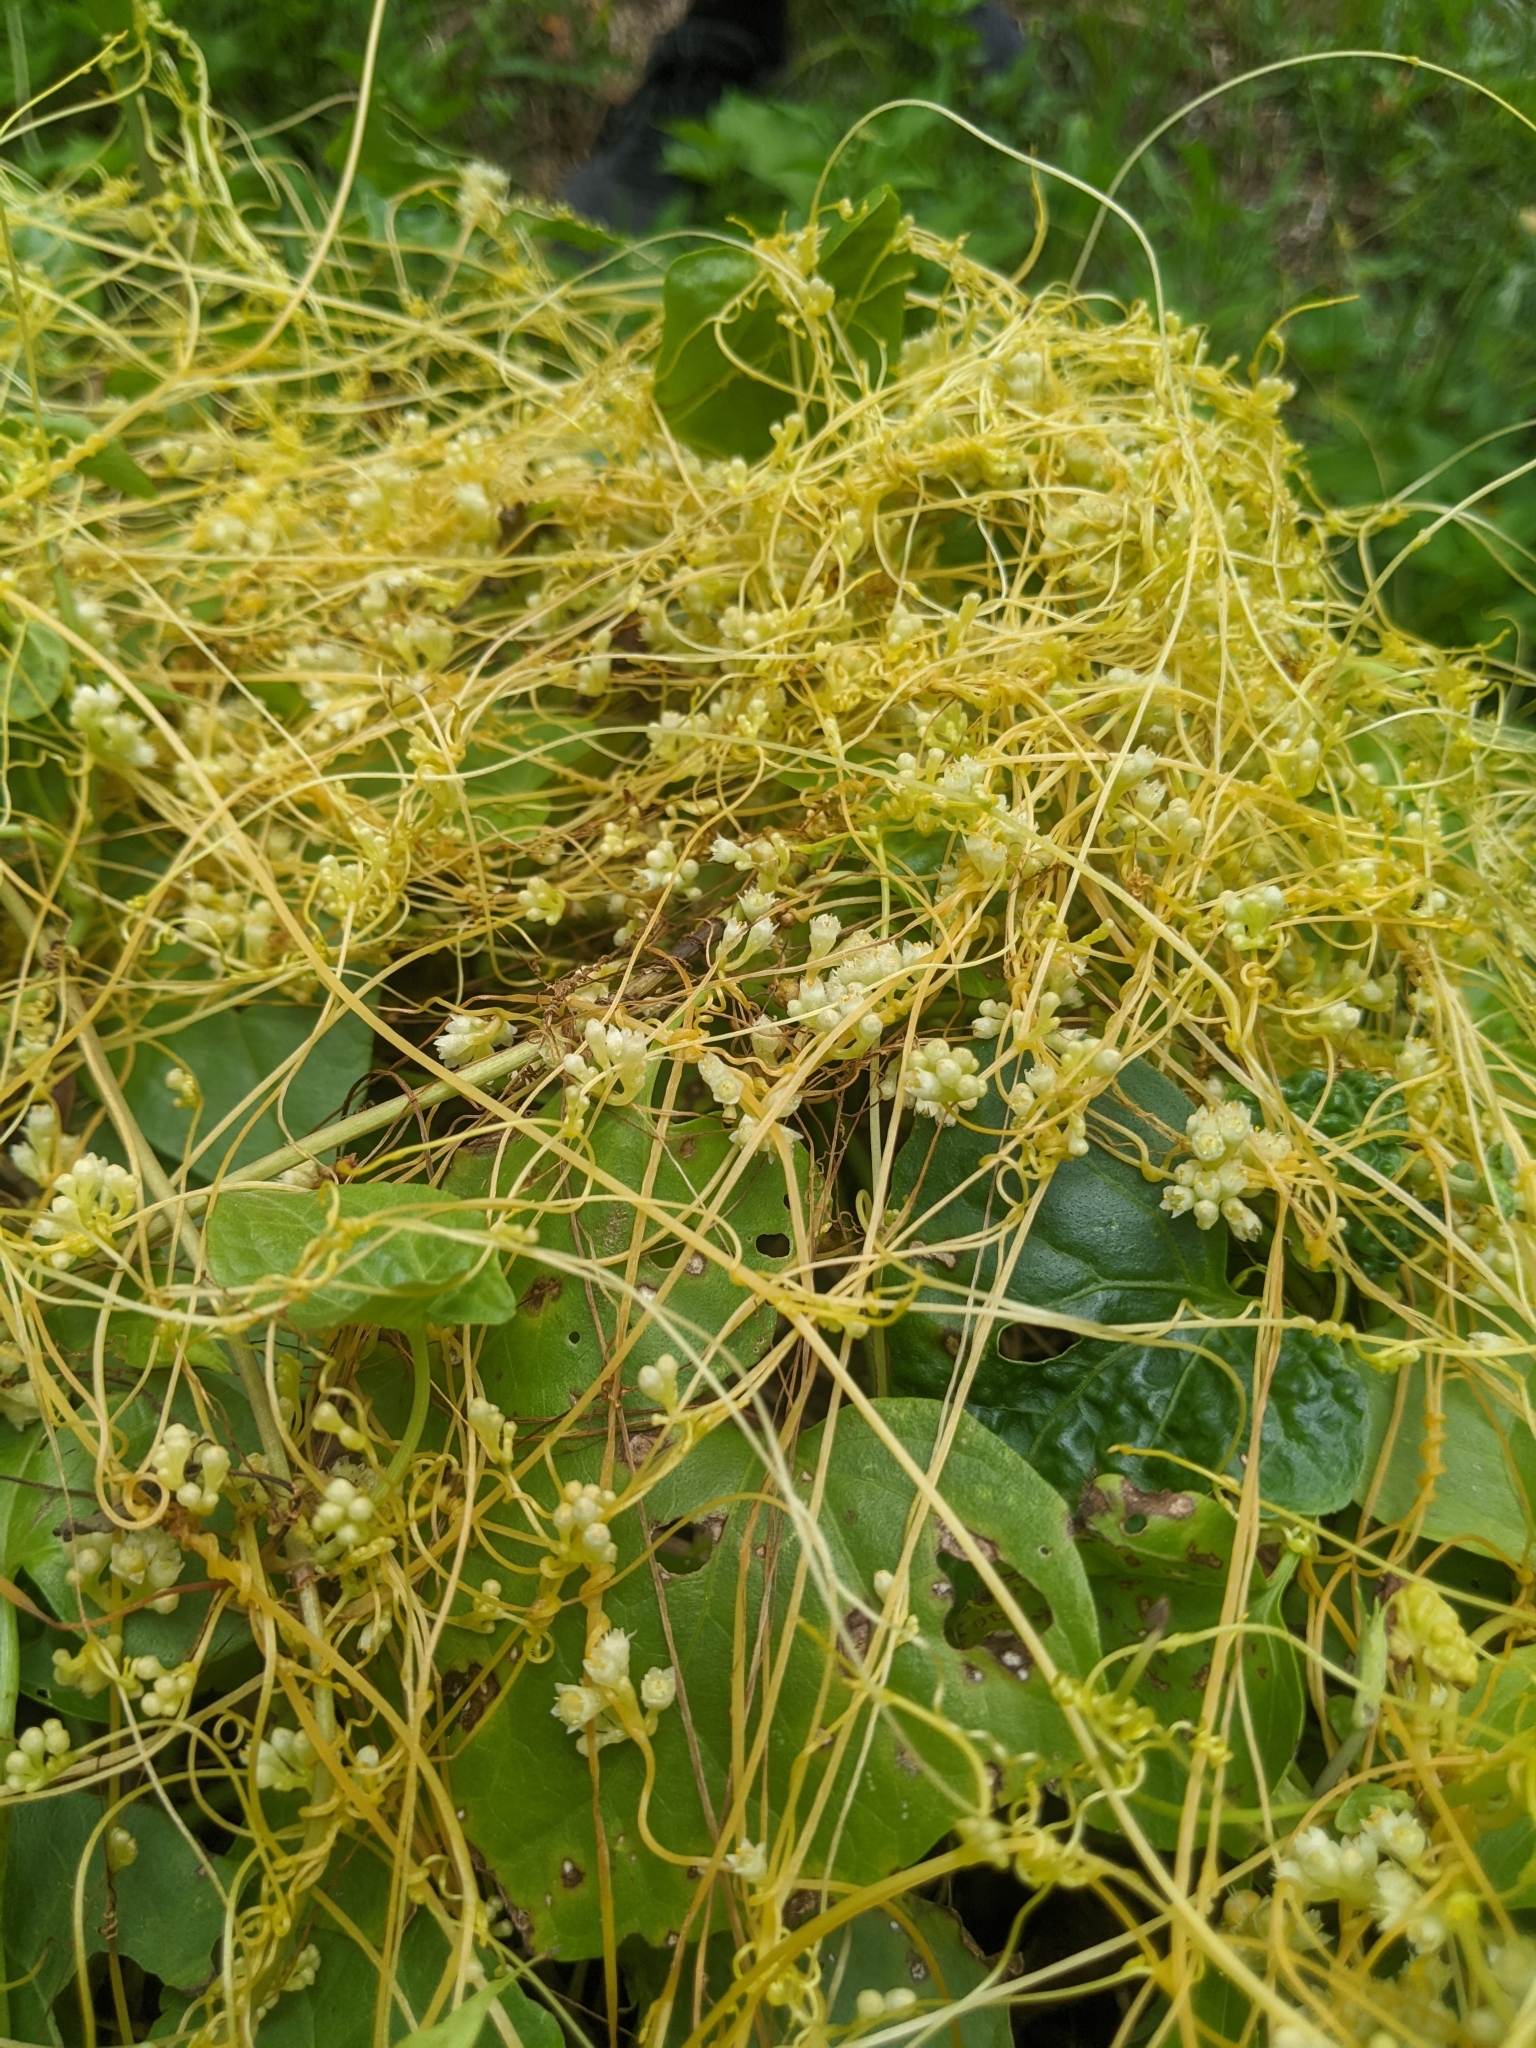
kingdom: Plantae
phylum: Tracheophyta
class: Magnoliopsida
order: Solanales
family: Convolvulaceae
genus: Cuscuta
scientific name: Cuscuta campestris
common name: Yellow dodder
